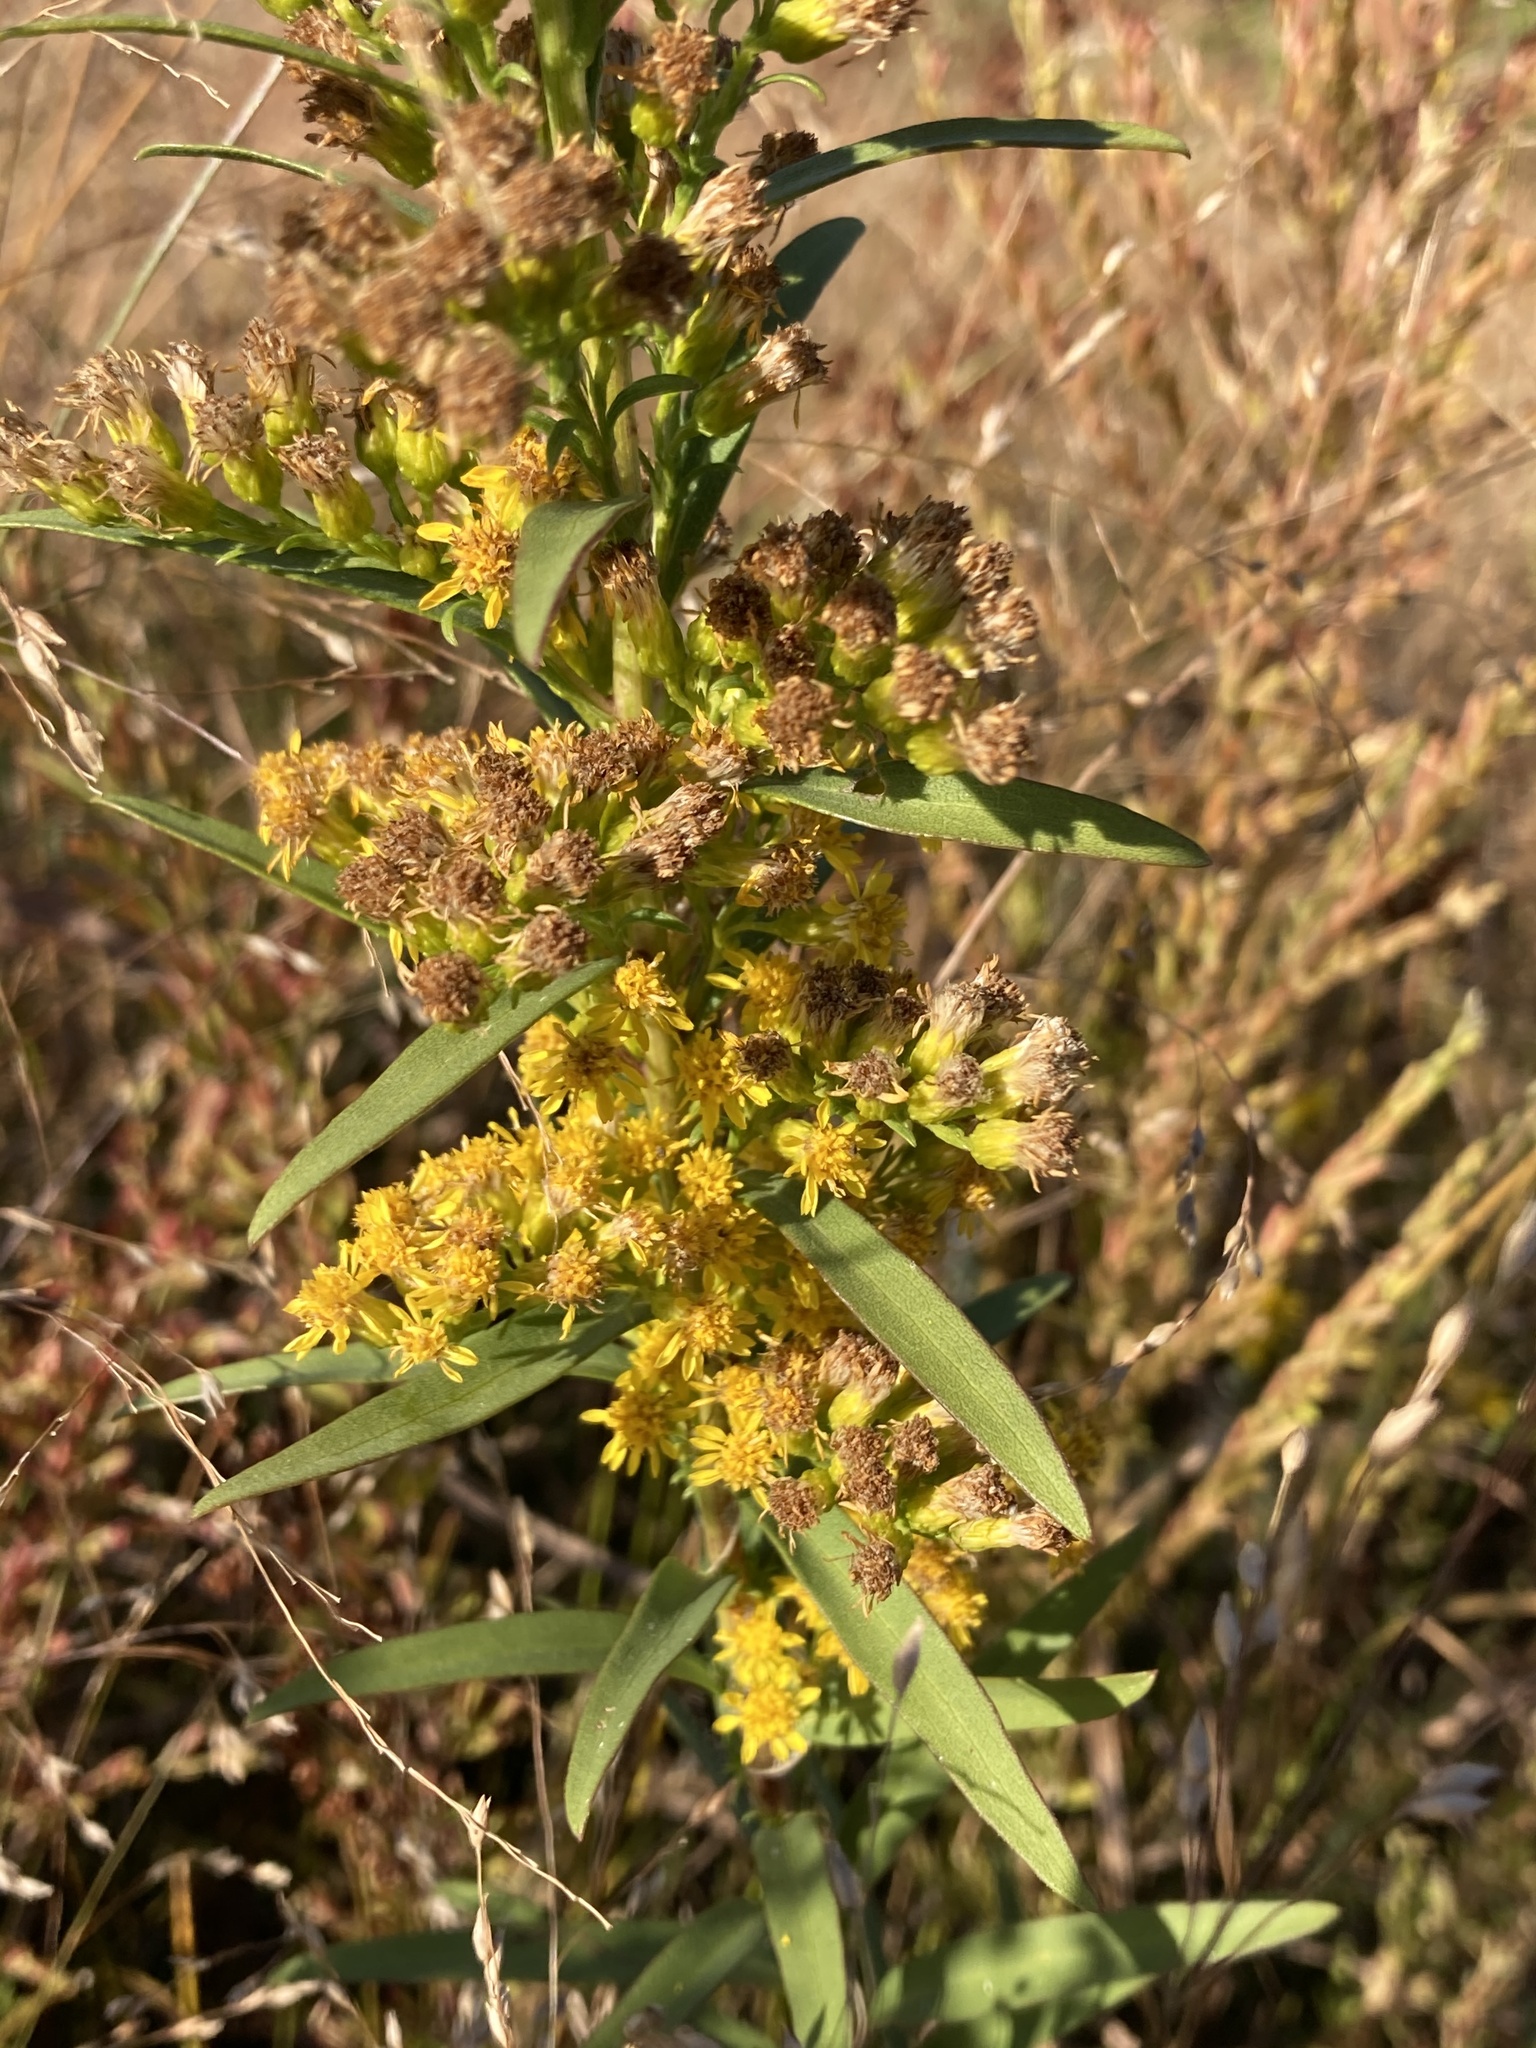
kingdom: Plantae
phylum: Tracheophyta
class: Magnoliopsida
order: Asterales
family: Asteraceae
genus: Solidago
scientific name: Solidago sempervirens
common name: Salt-marsh goldenrod
